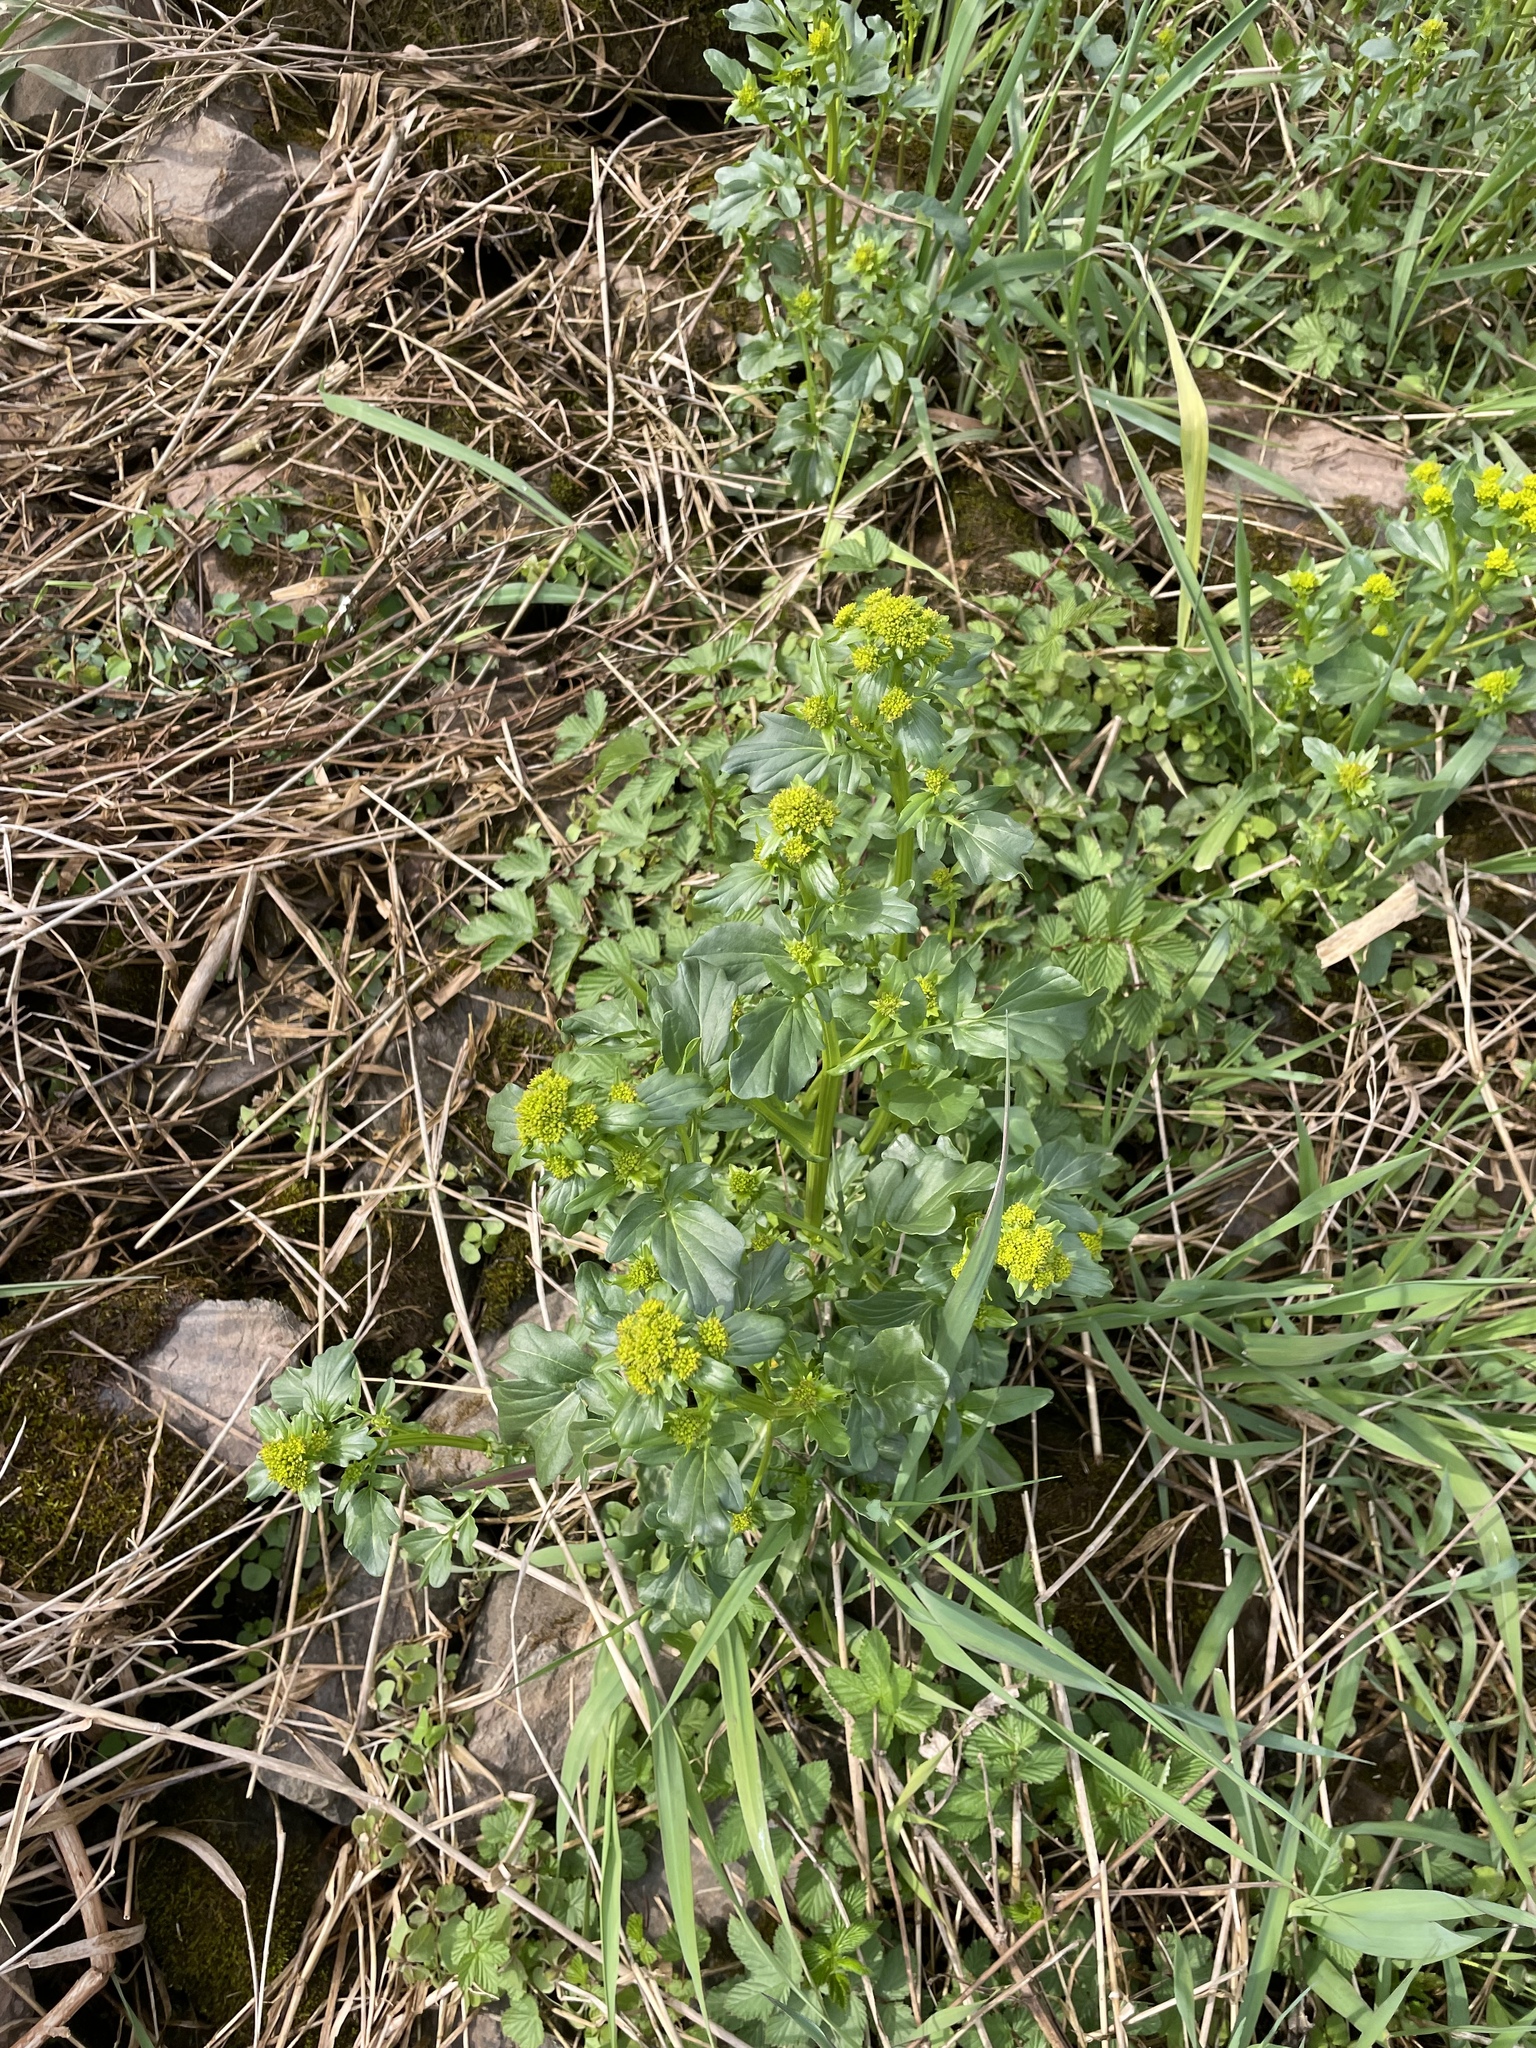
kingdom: Plantae
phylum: Tracheophyta
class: Magnoliopsida
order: Brassicales
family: Brassicaceae
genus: Barbarea
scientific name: Barbarea vulgaris
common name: Cressy-greens
